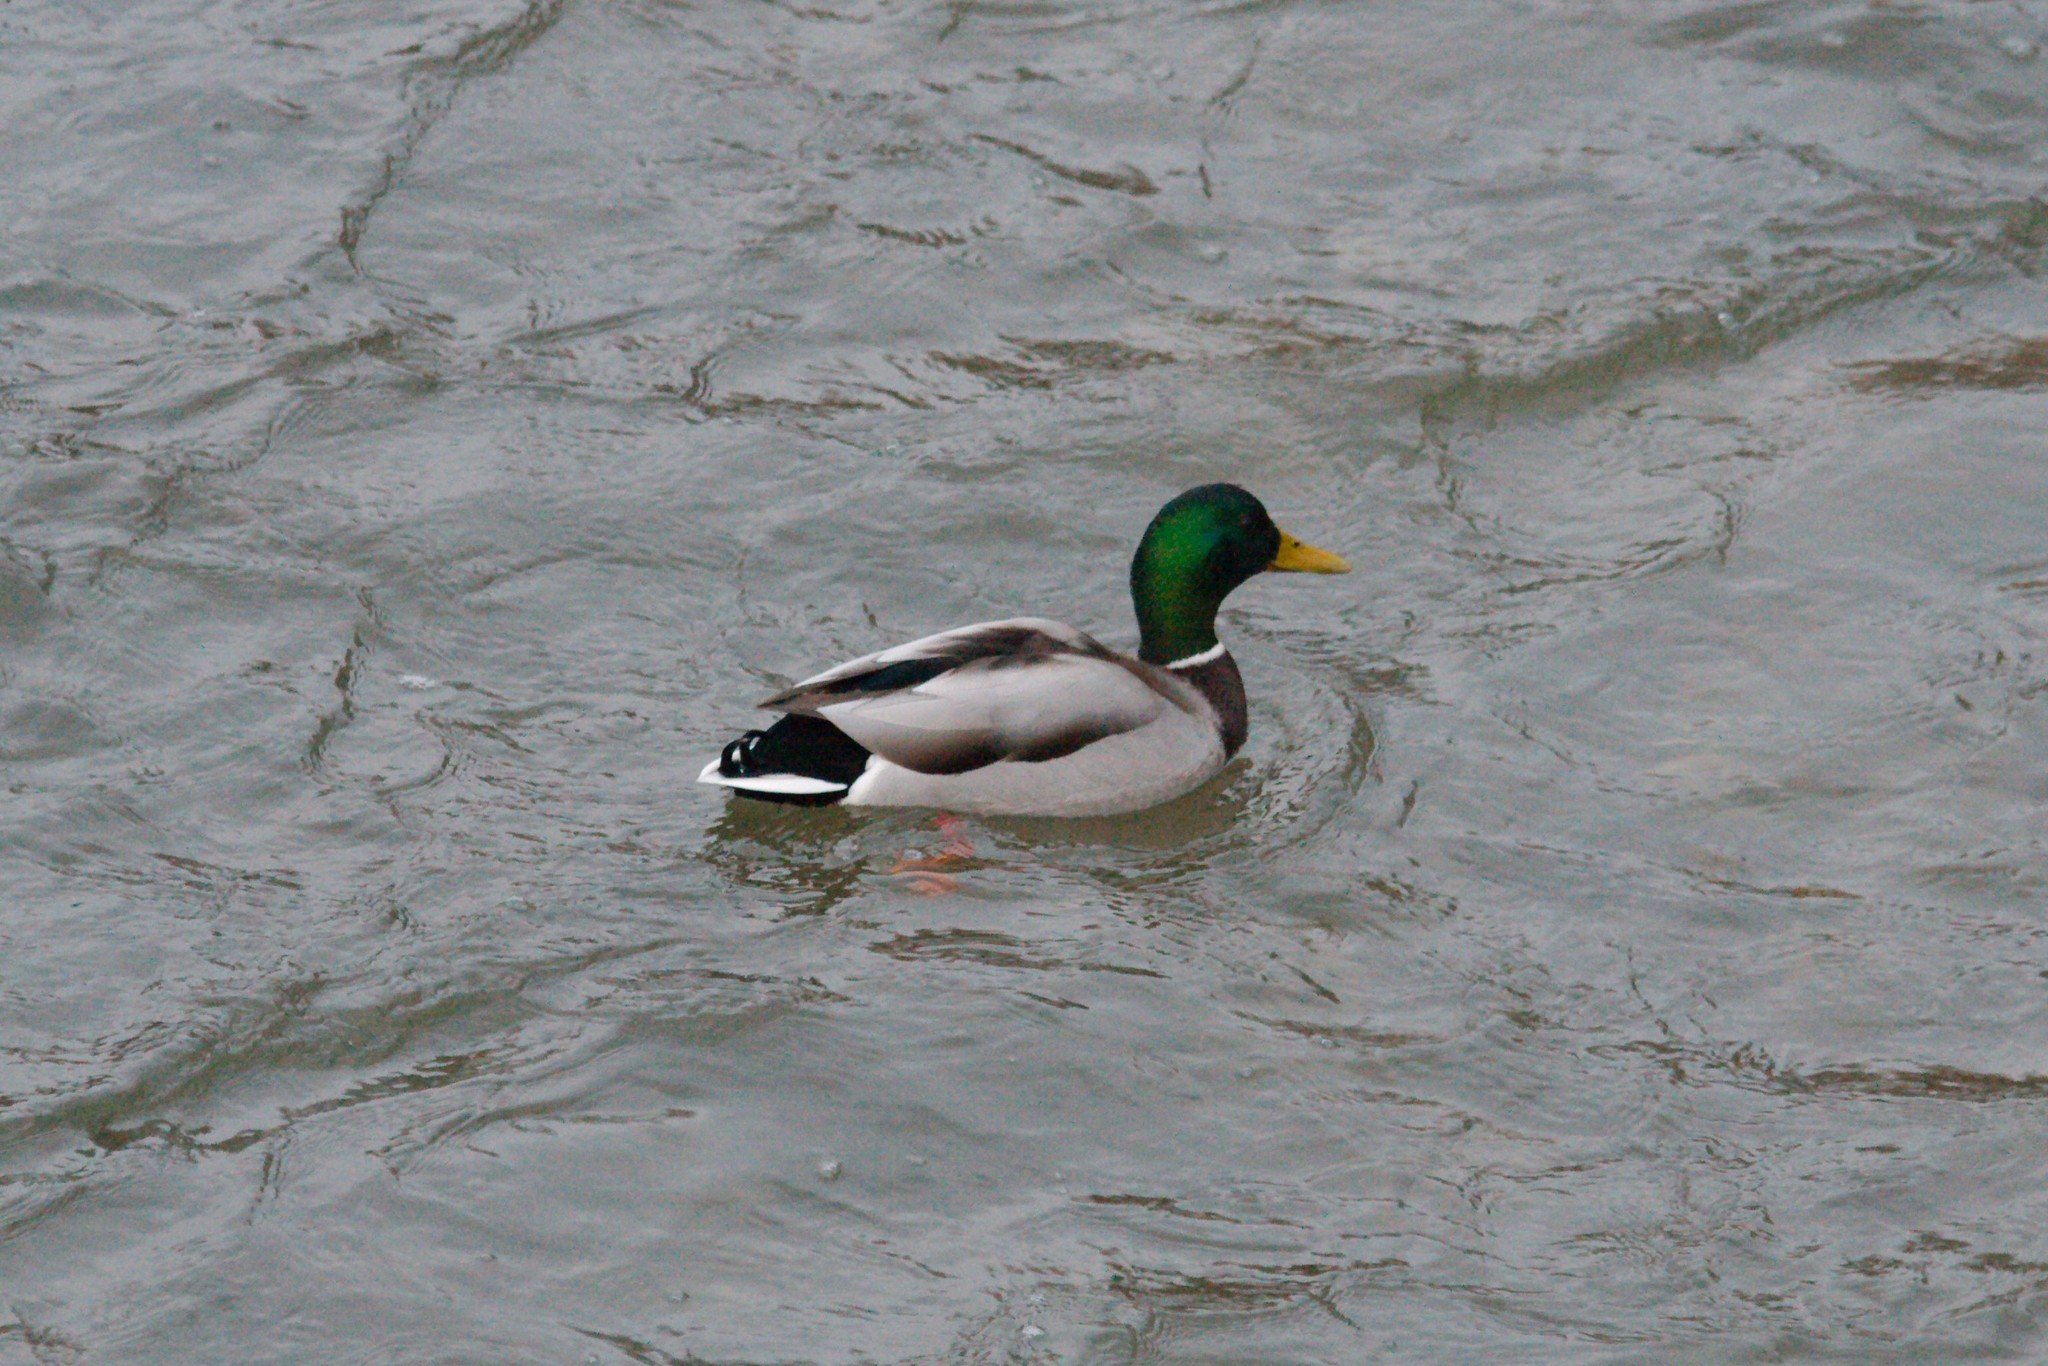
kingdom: Animalia
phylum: Chordata
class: Aves
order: Anseriformes
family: Anatidae
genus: Anas
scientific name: Anas platyrhynchos
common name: Mallard
